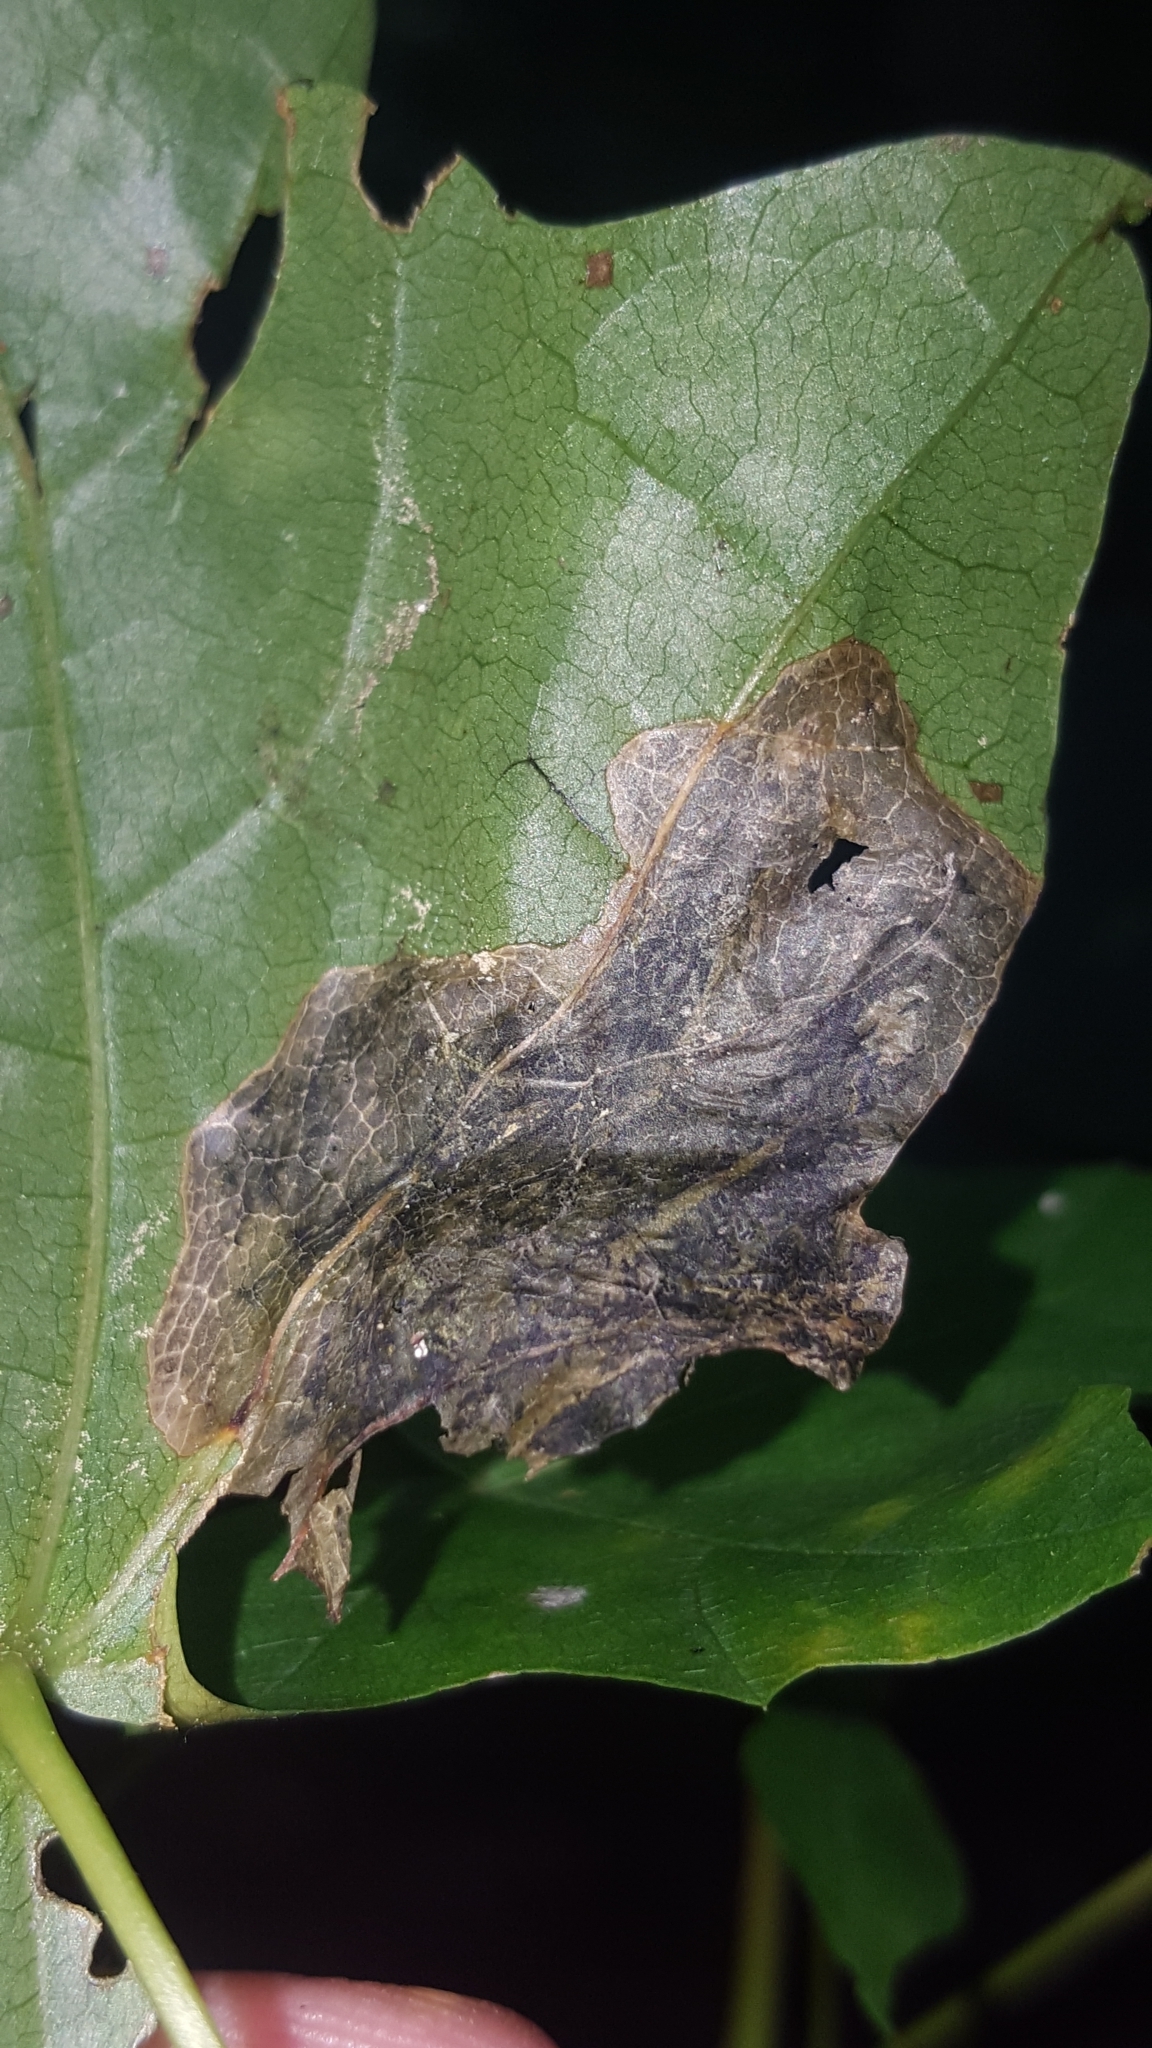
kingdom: Animalia
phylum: Arthropoda
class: Insecta
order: Hymenoptera
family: Tenthredinidae
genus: Hinatara
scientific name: Hinatara recta
